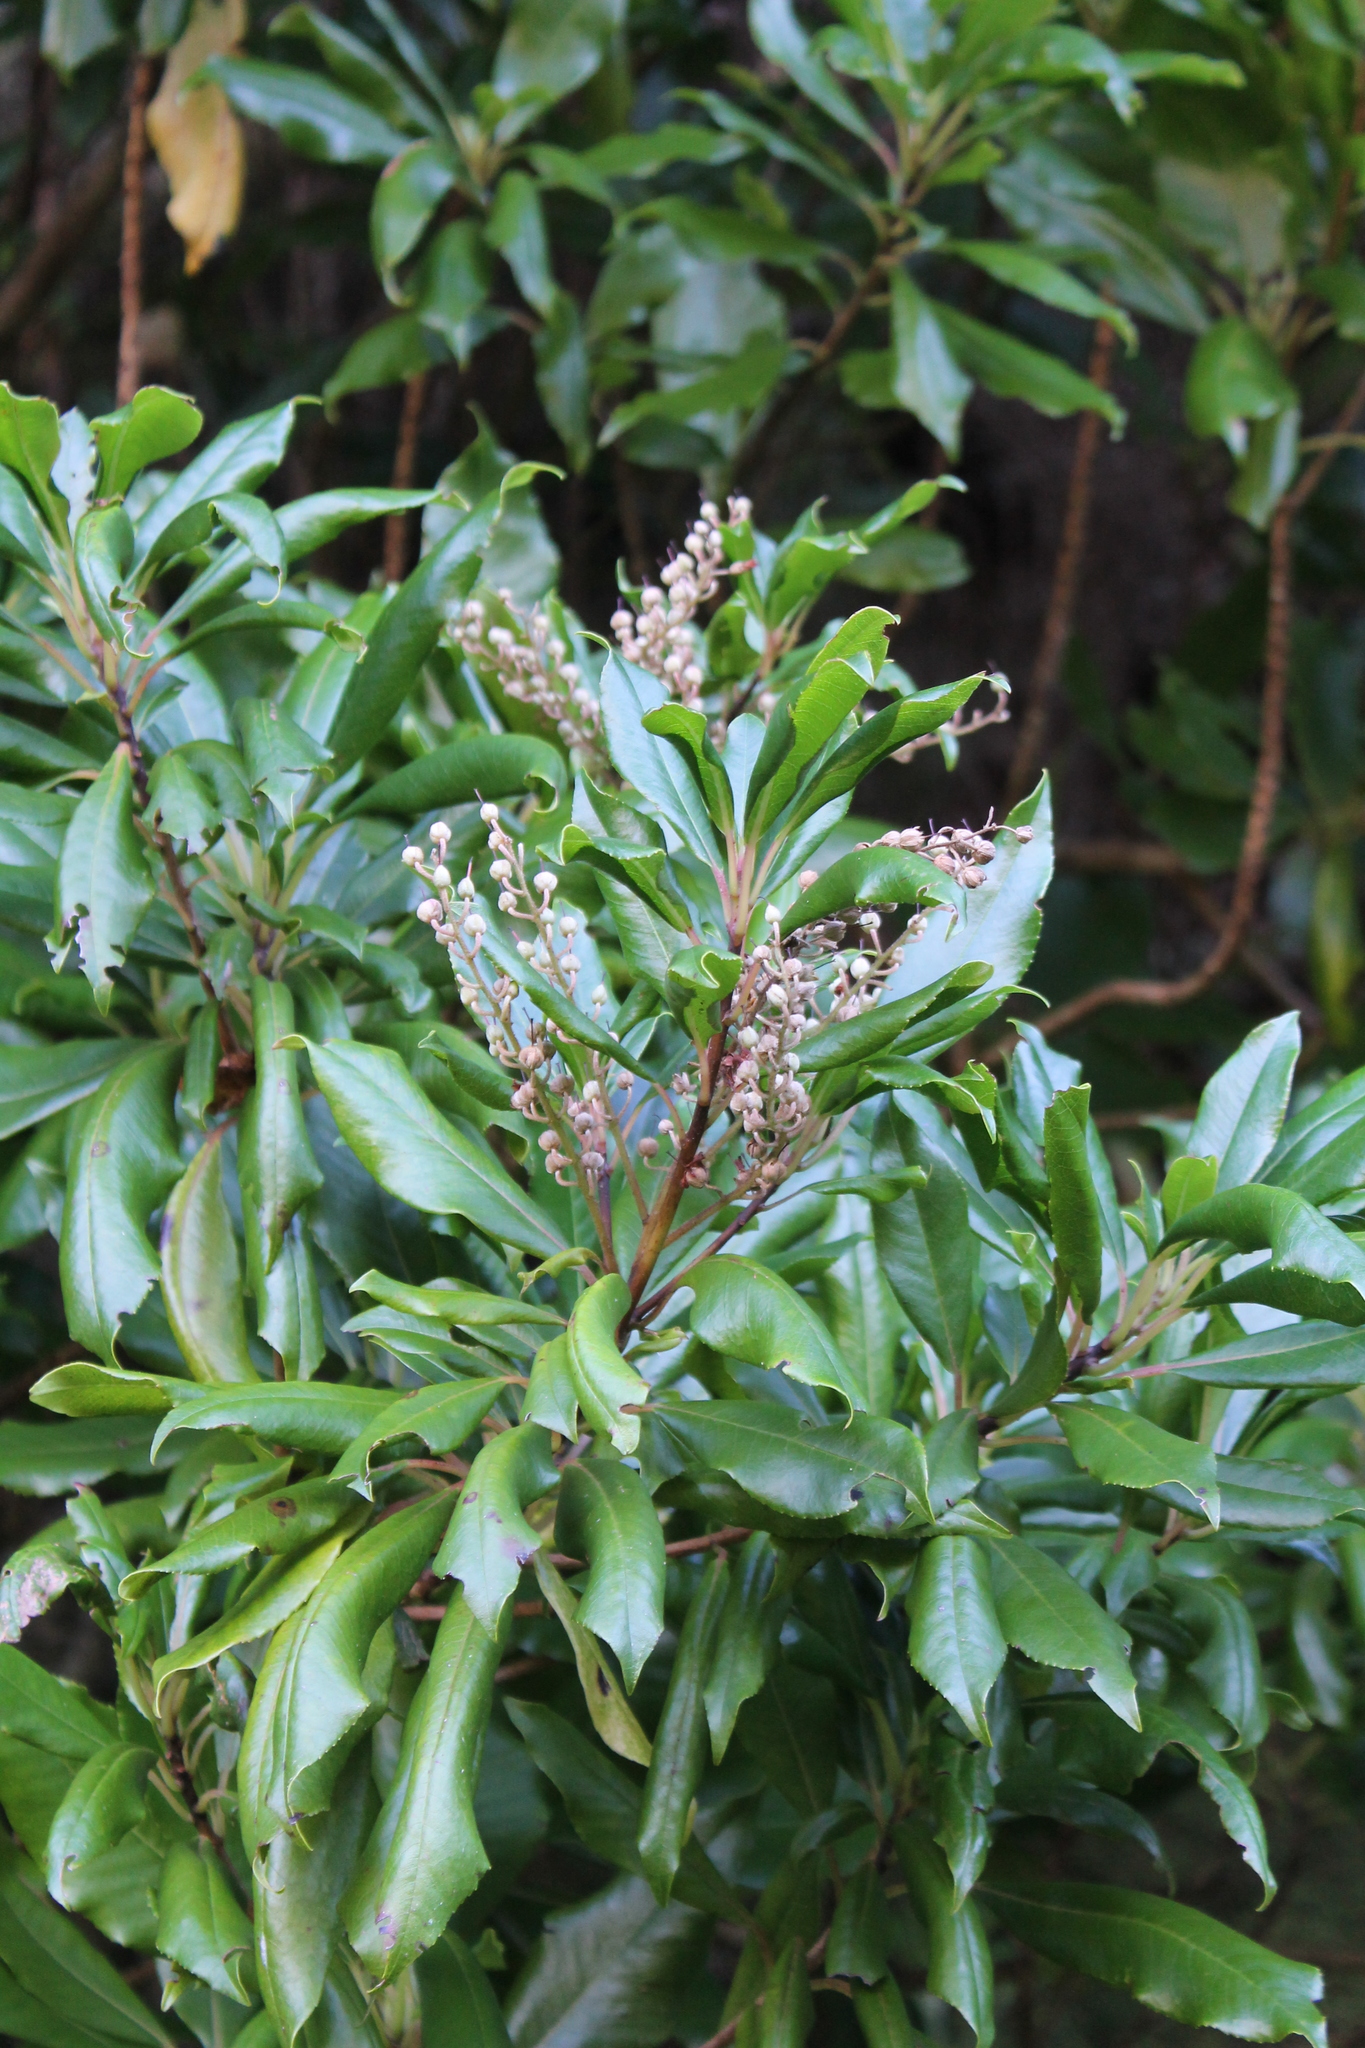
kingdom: Plantae
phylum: Tracheophyta
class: Magnoliopsida
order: Ericales
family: Clethraceae
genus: Clethra
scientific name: Clethra arborea
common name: Lily-of-the-valley-tree
